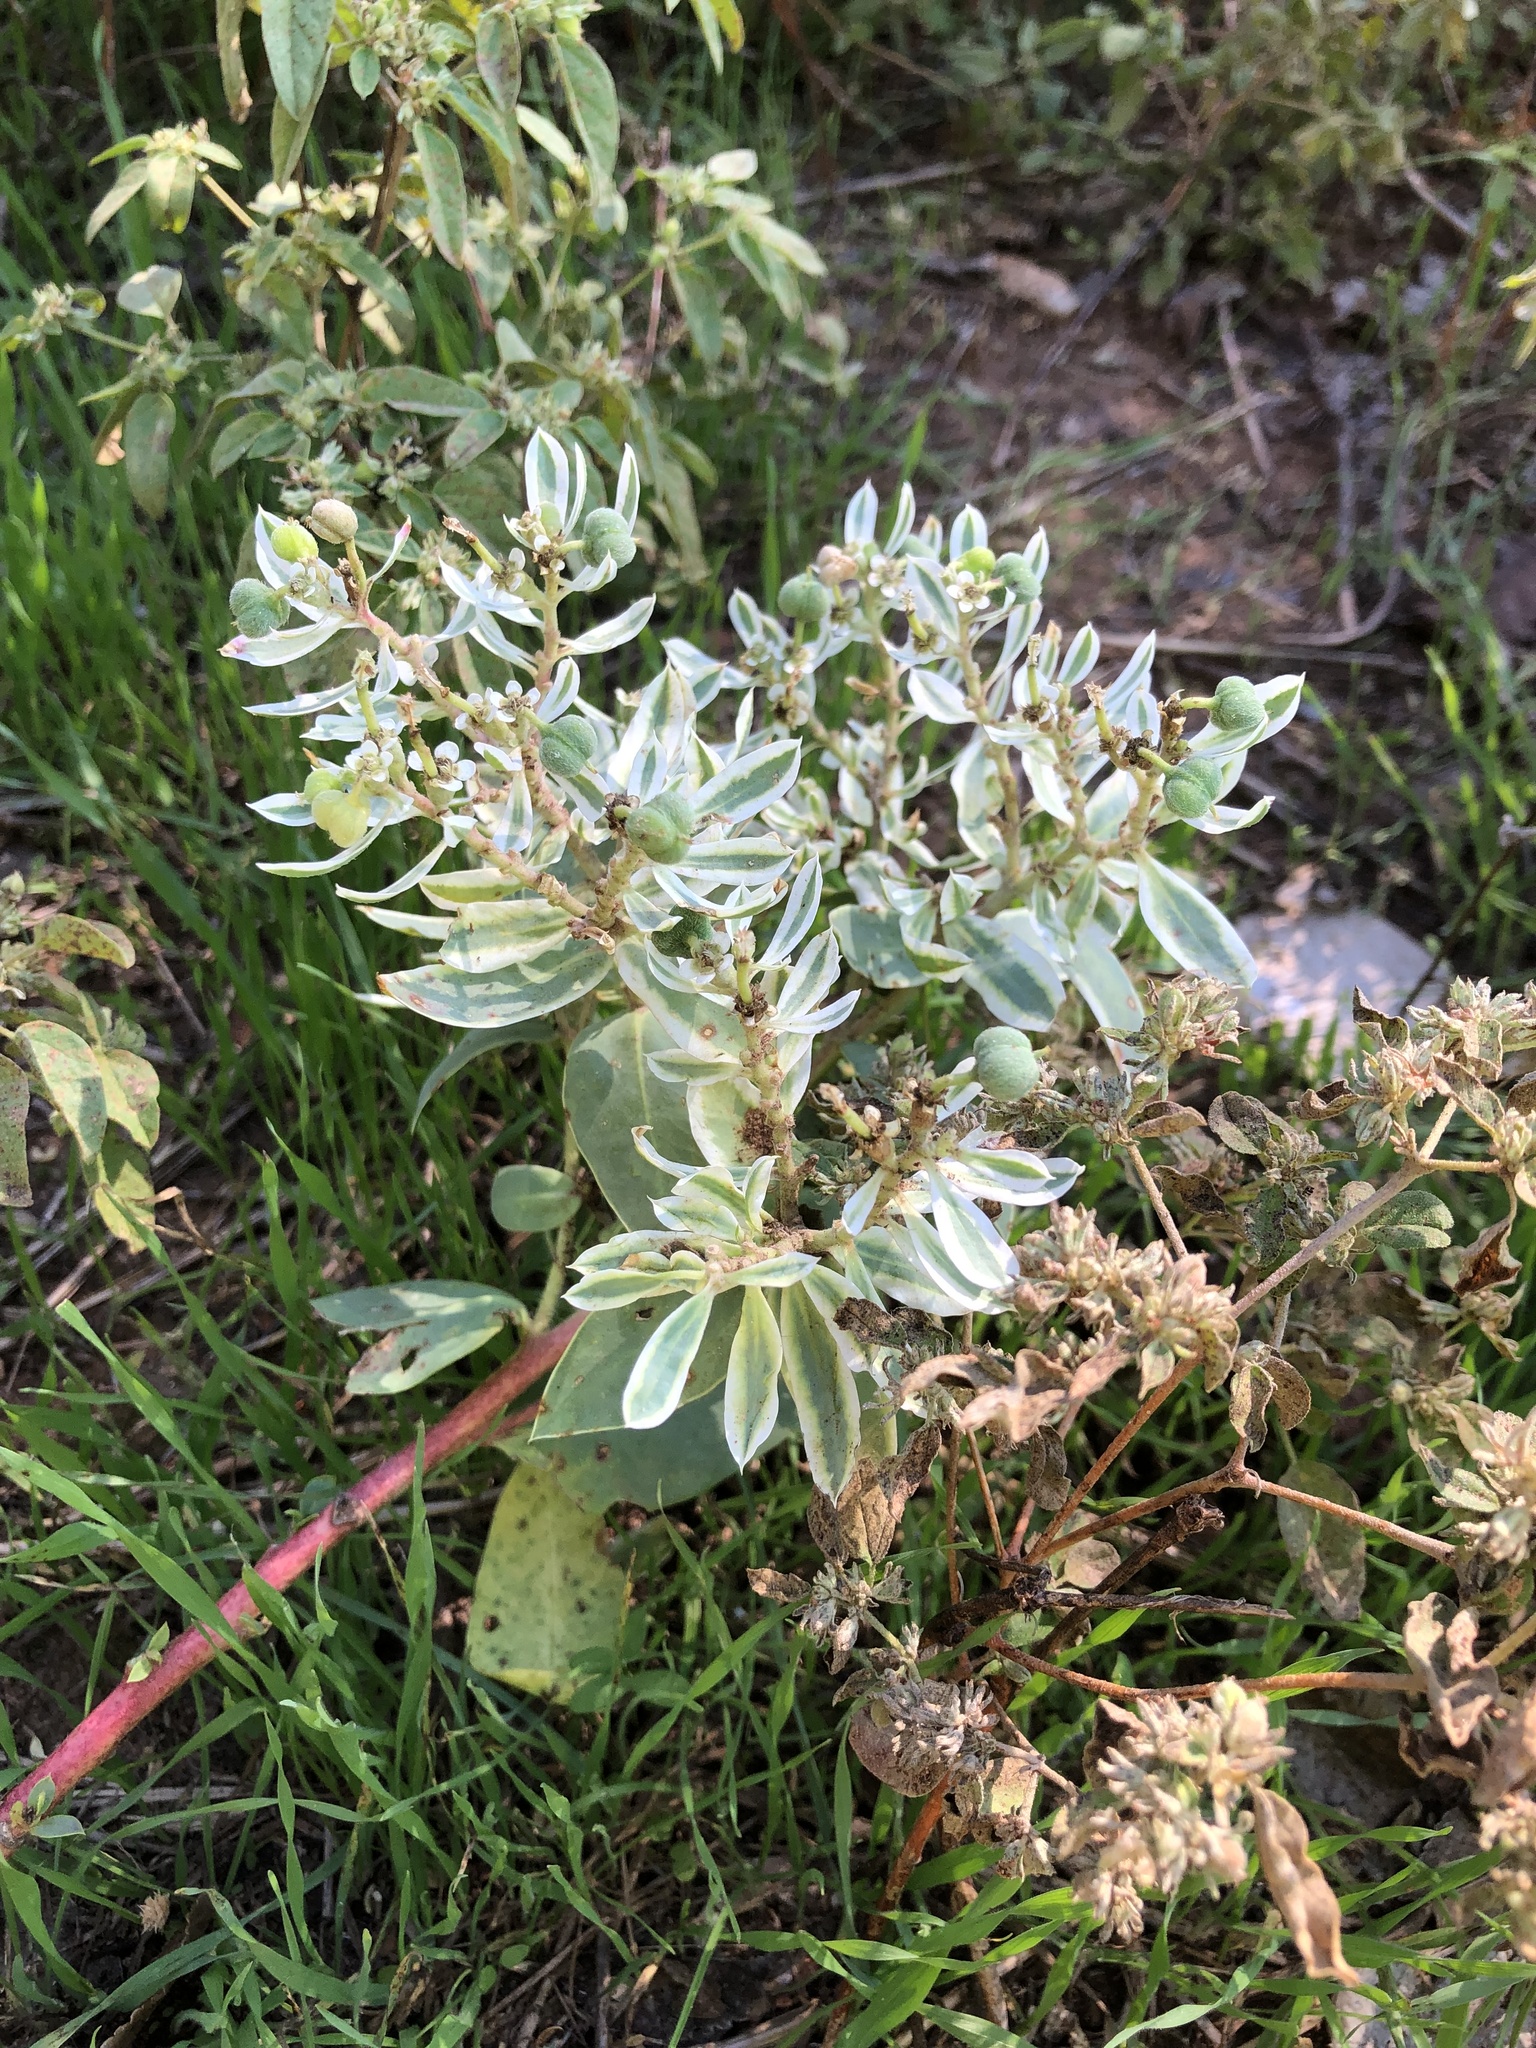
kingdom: Plantae
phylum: Tracheophyta
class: Magnoliopsida
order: Malpighiales
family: Euphorbiaceae
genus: Euphorbia
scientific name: Euphorbia marginata
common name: Ghostweed
